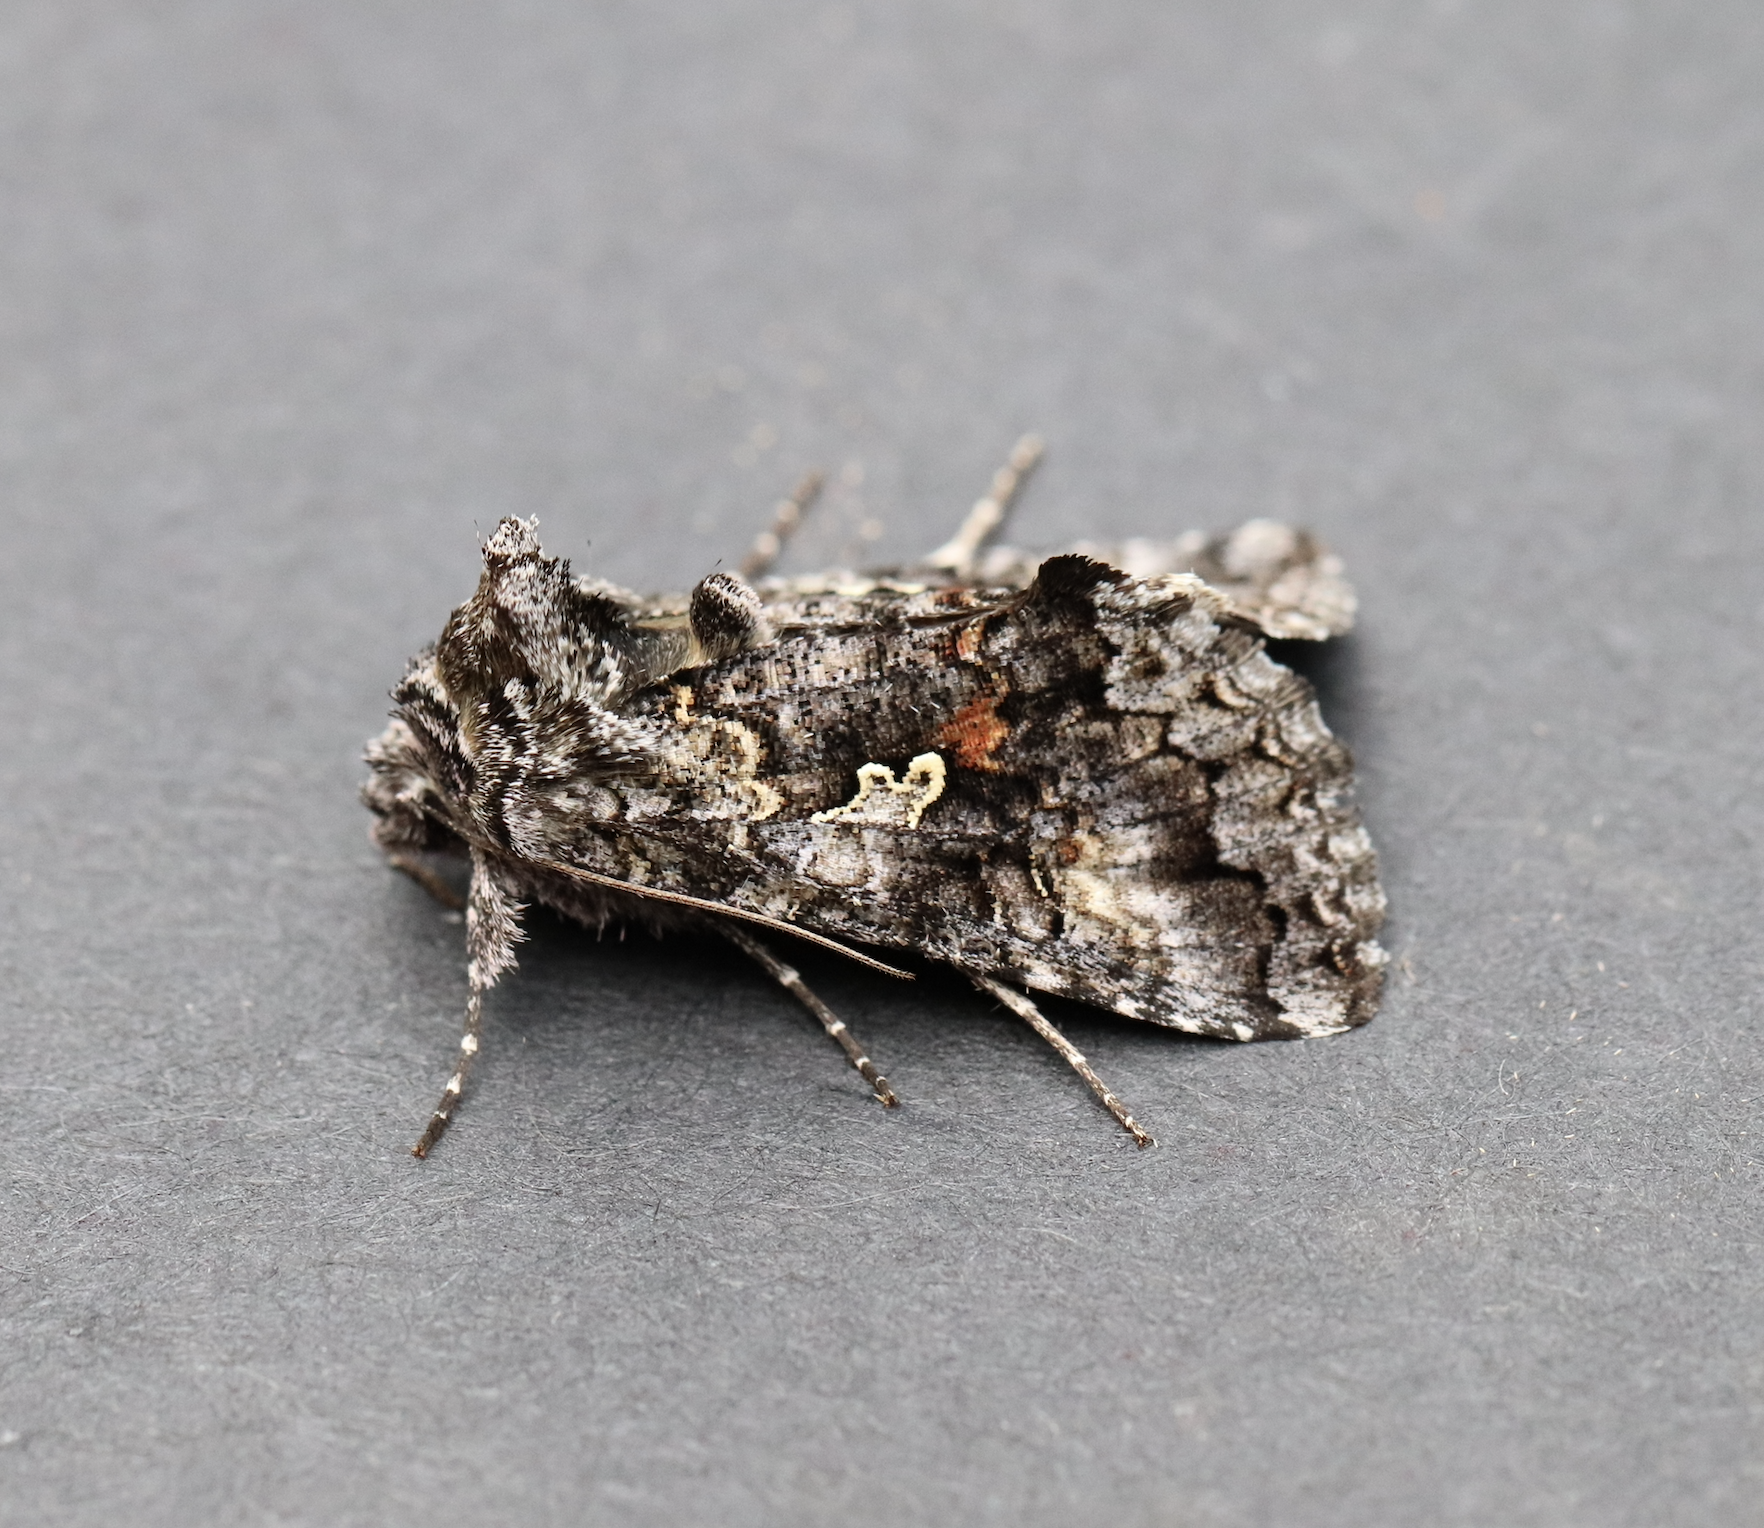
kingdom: Animalia
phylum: Arthropoda
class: Insecta
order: Lepidoptera
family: Noctuidae
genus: Syngrapha
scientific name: Syngrapha octoscripta
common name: Dusky silver y moth
